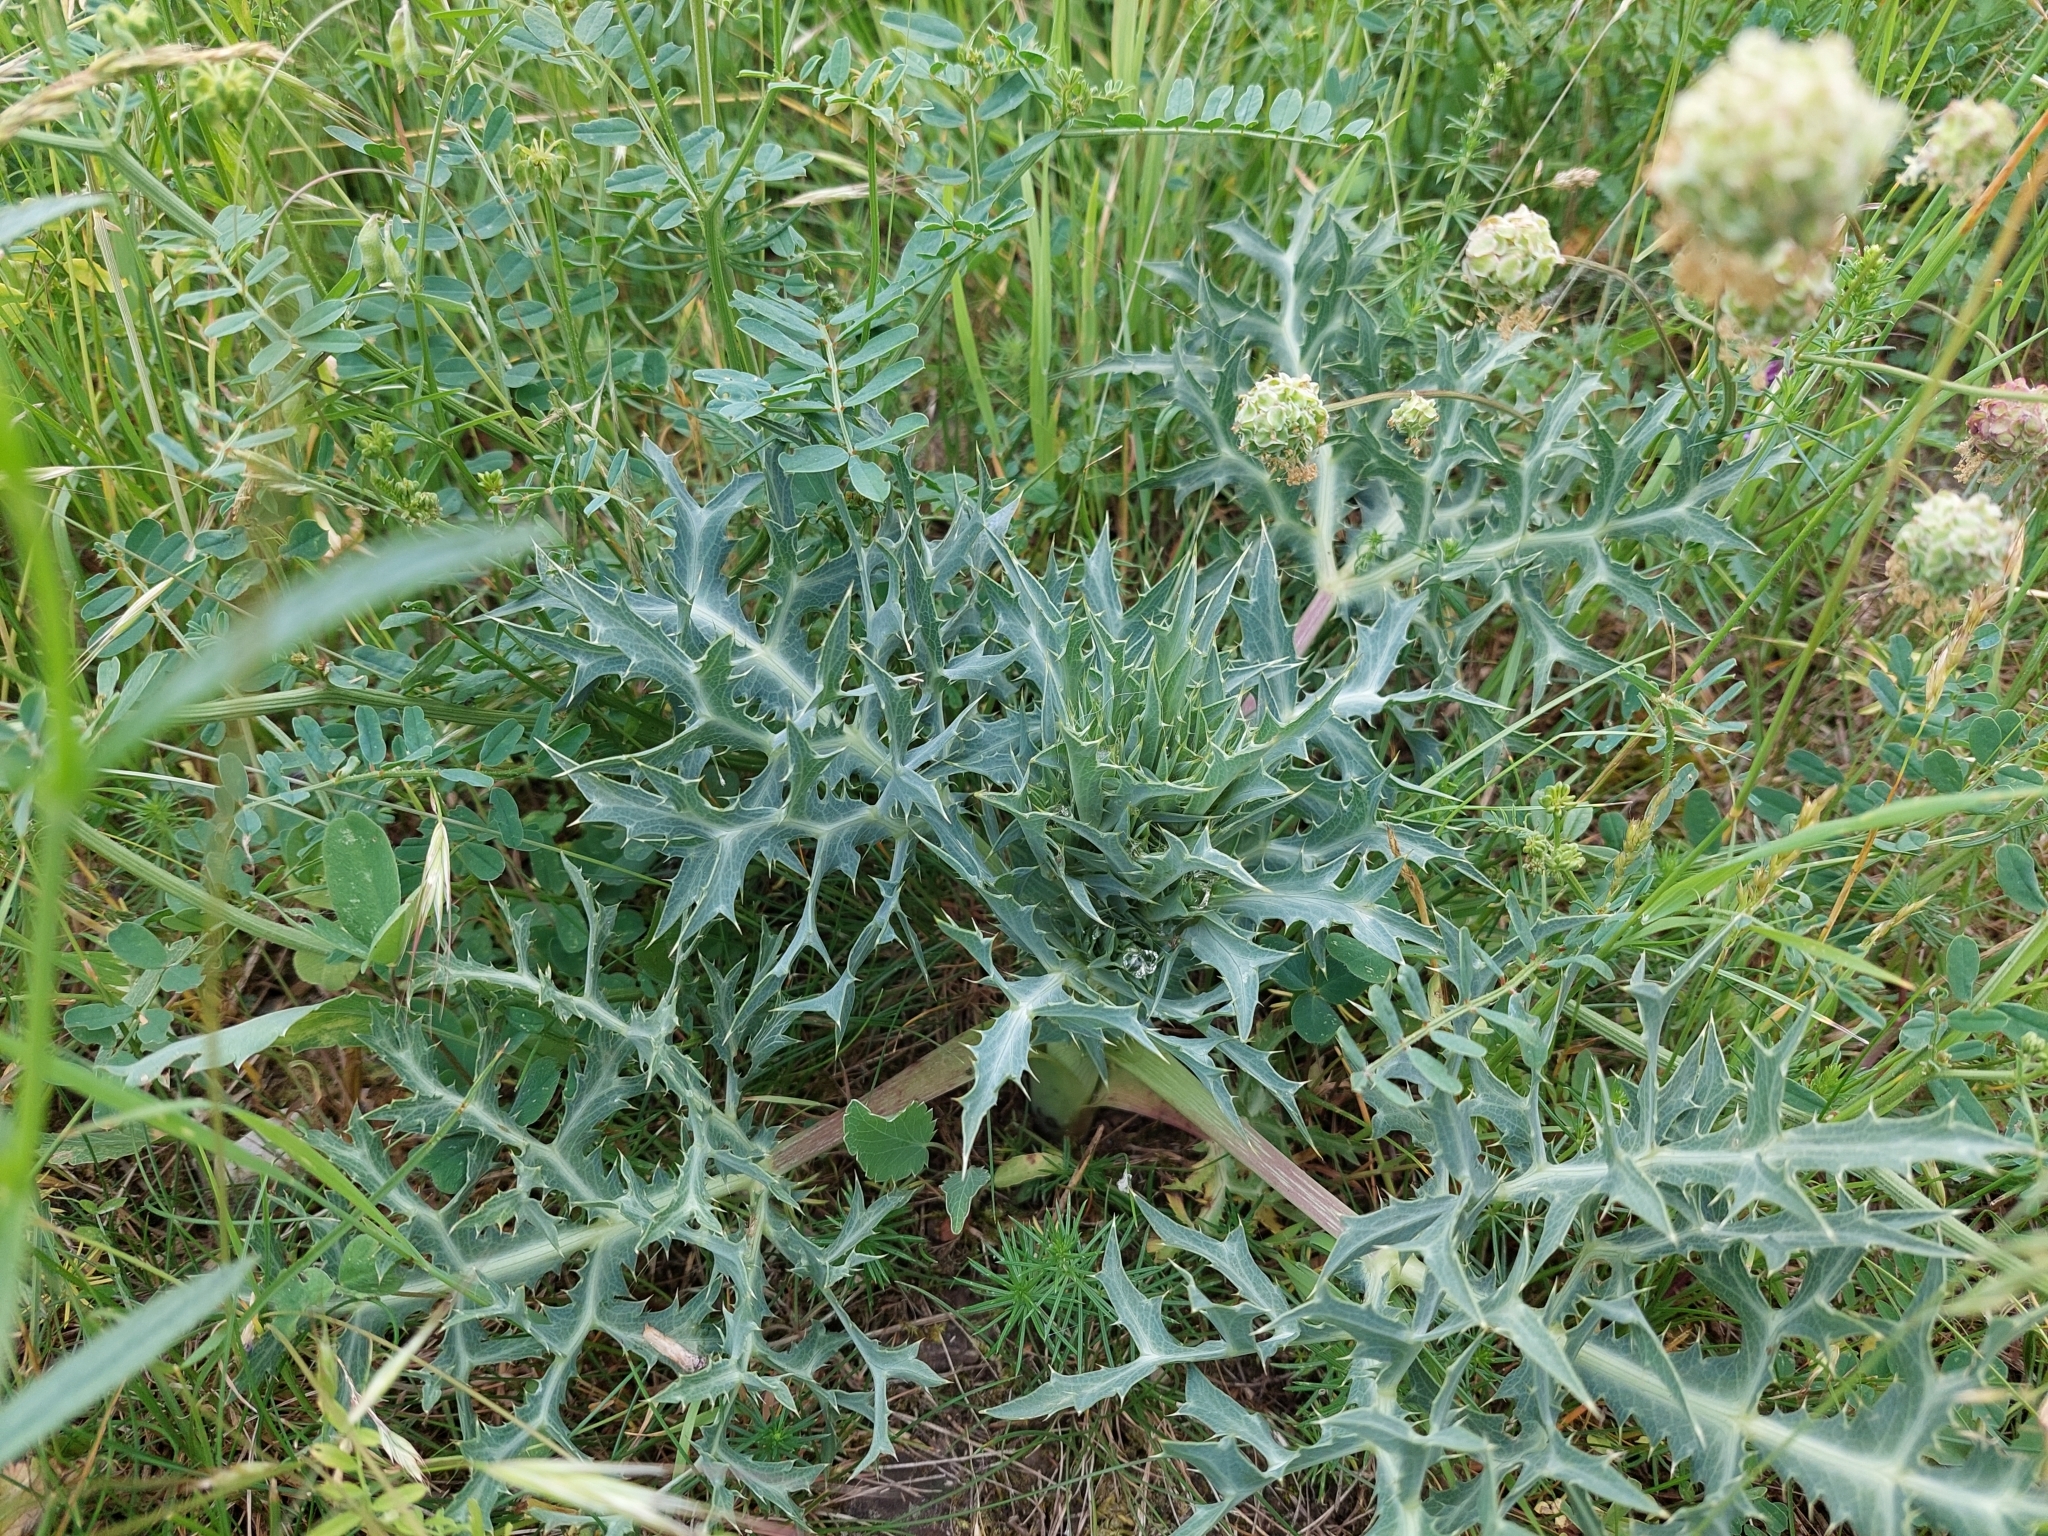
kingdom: Plantae
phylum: Tracheophyta
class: Magnoliopsida
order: Apiales
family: Apiaceae
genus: Eryngium
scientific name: Eryngium campestre
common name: Field eryngo
